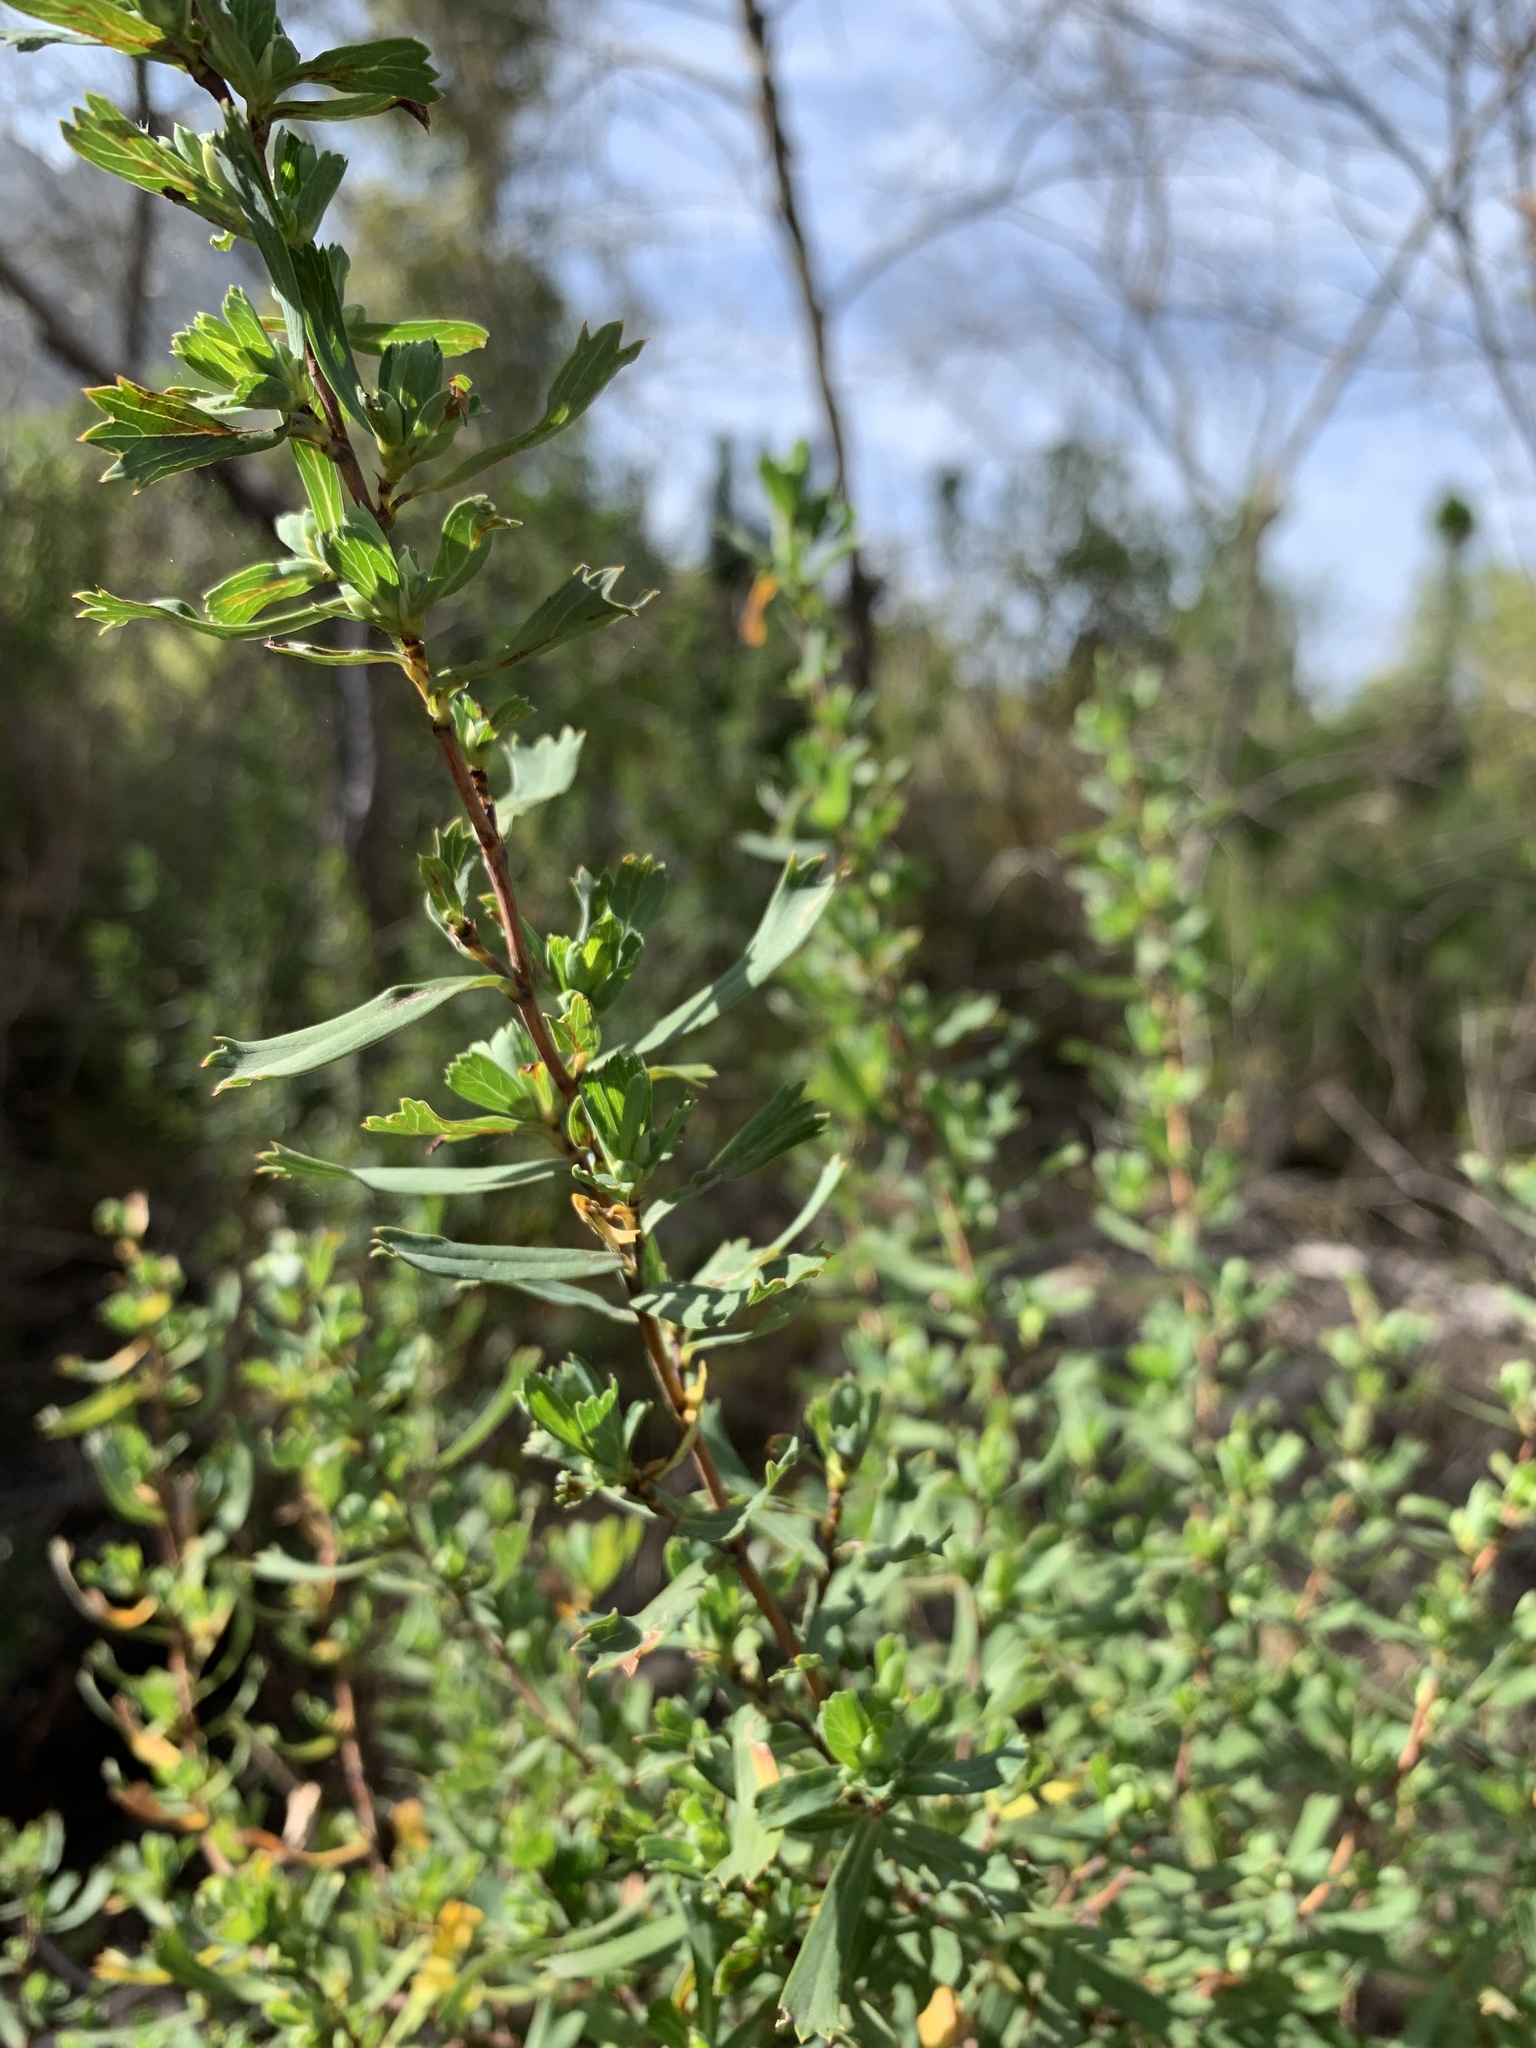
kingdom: Plantae
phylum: Tracheophyta
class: Magnoliopsida
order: Rosales
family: Rosaceae
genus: Cliffortia
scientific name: Cliffortia cuneata
